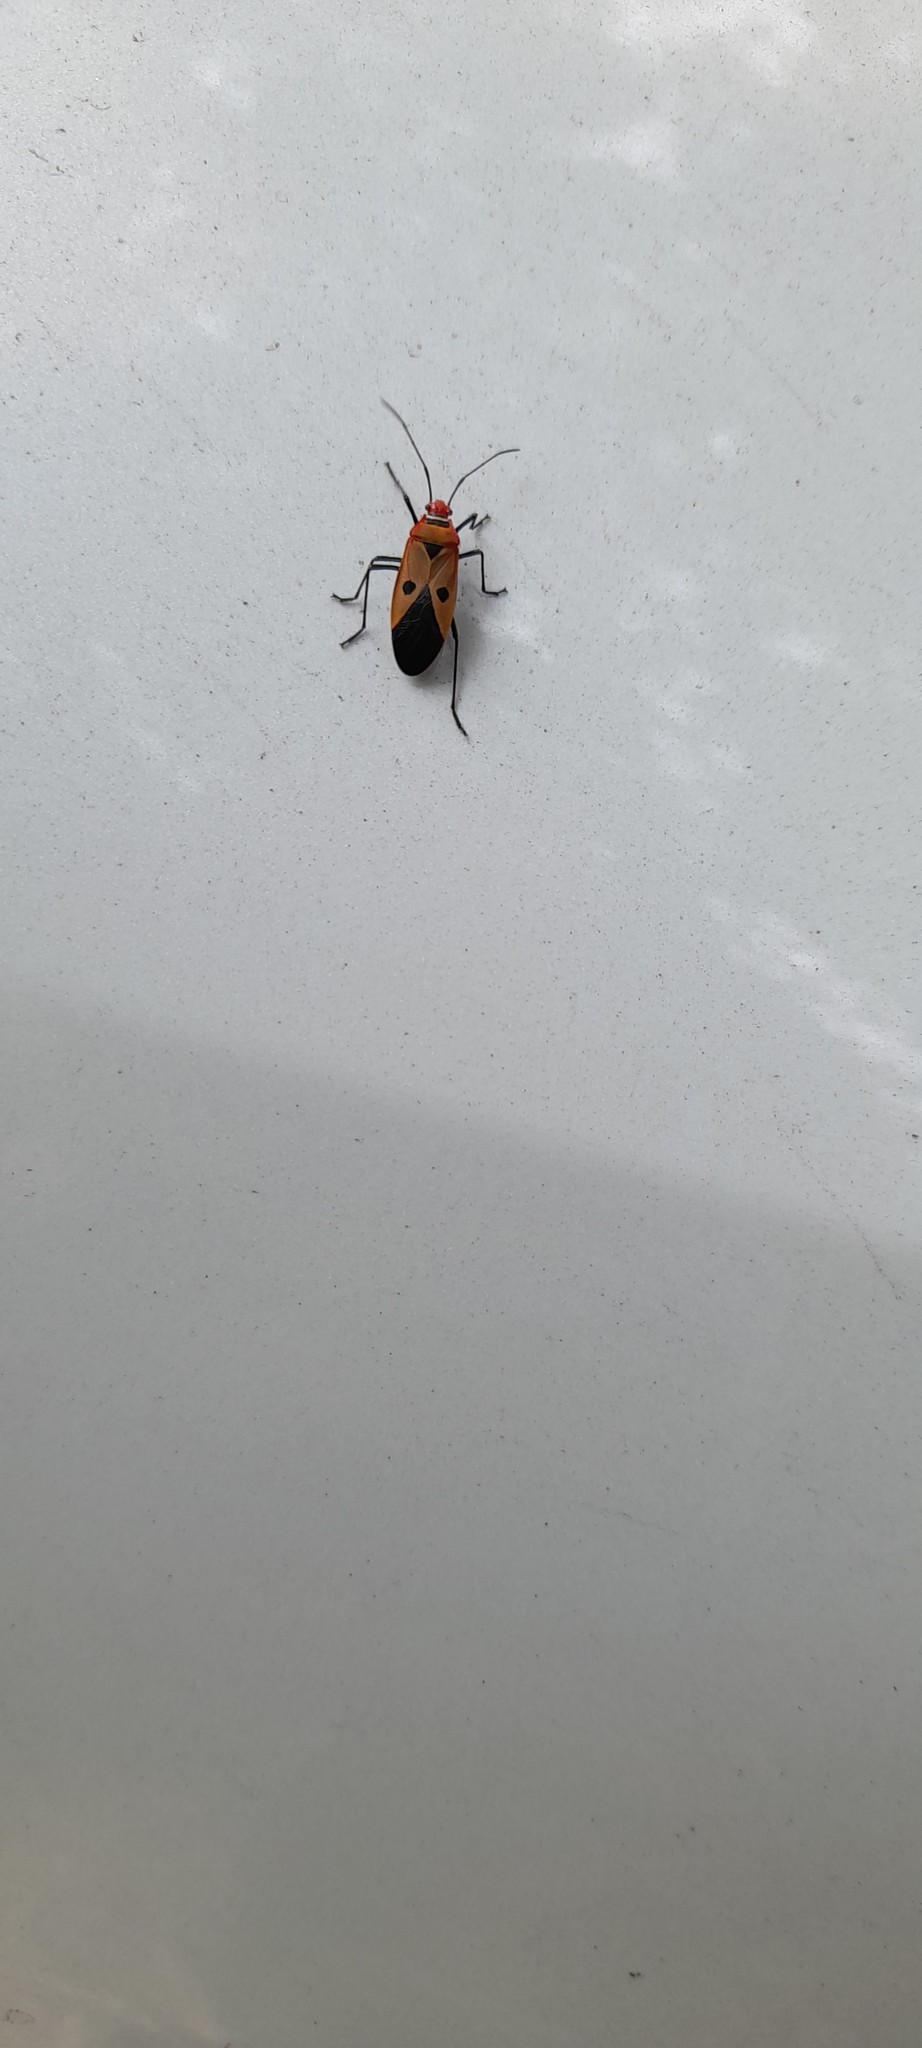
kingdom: Animalia
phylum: Arthropoda
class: Insecta
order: Hemiptera
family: Pyrrhocoridae
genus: Dysdercus
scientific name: Dysdercus cingulatus
